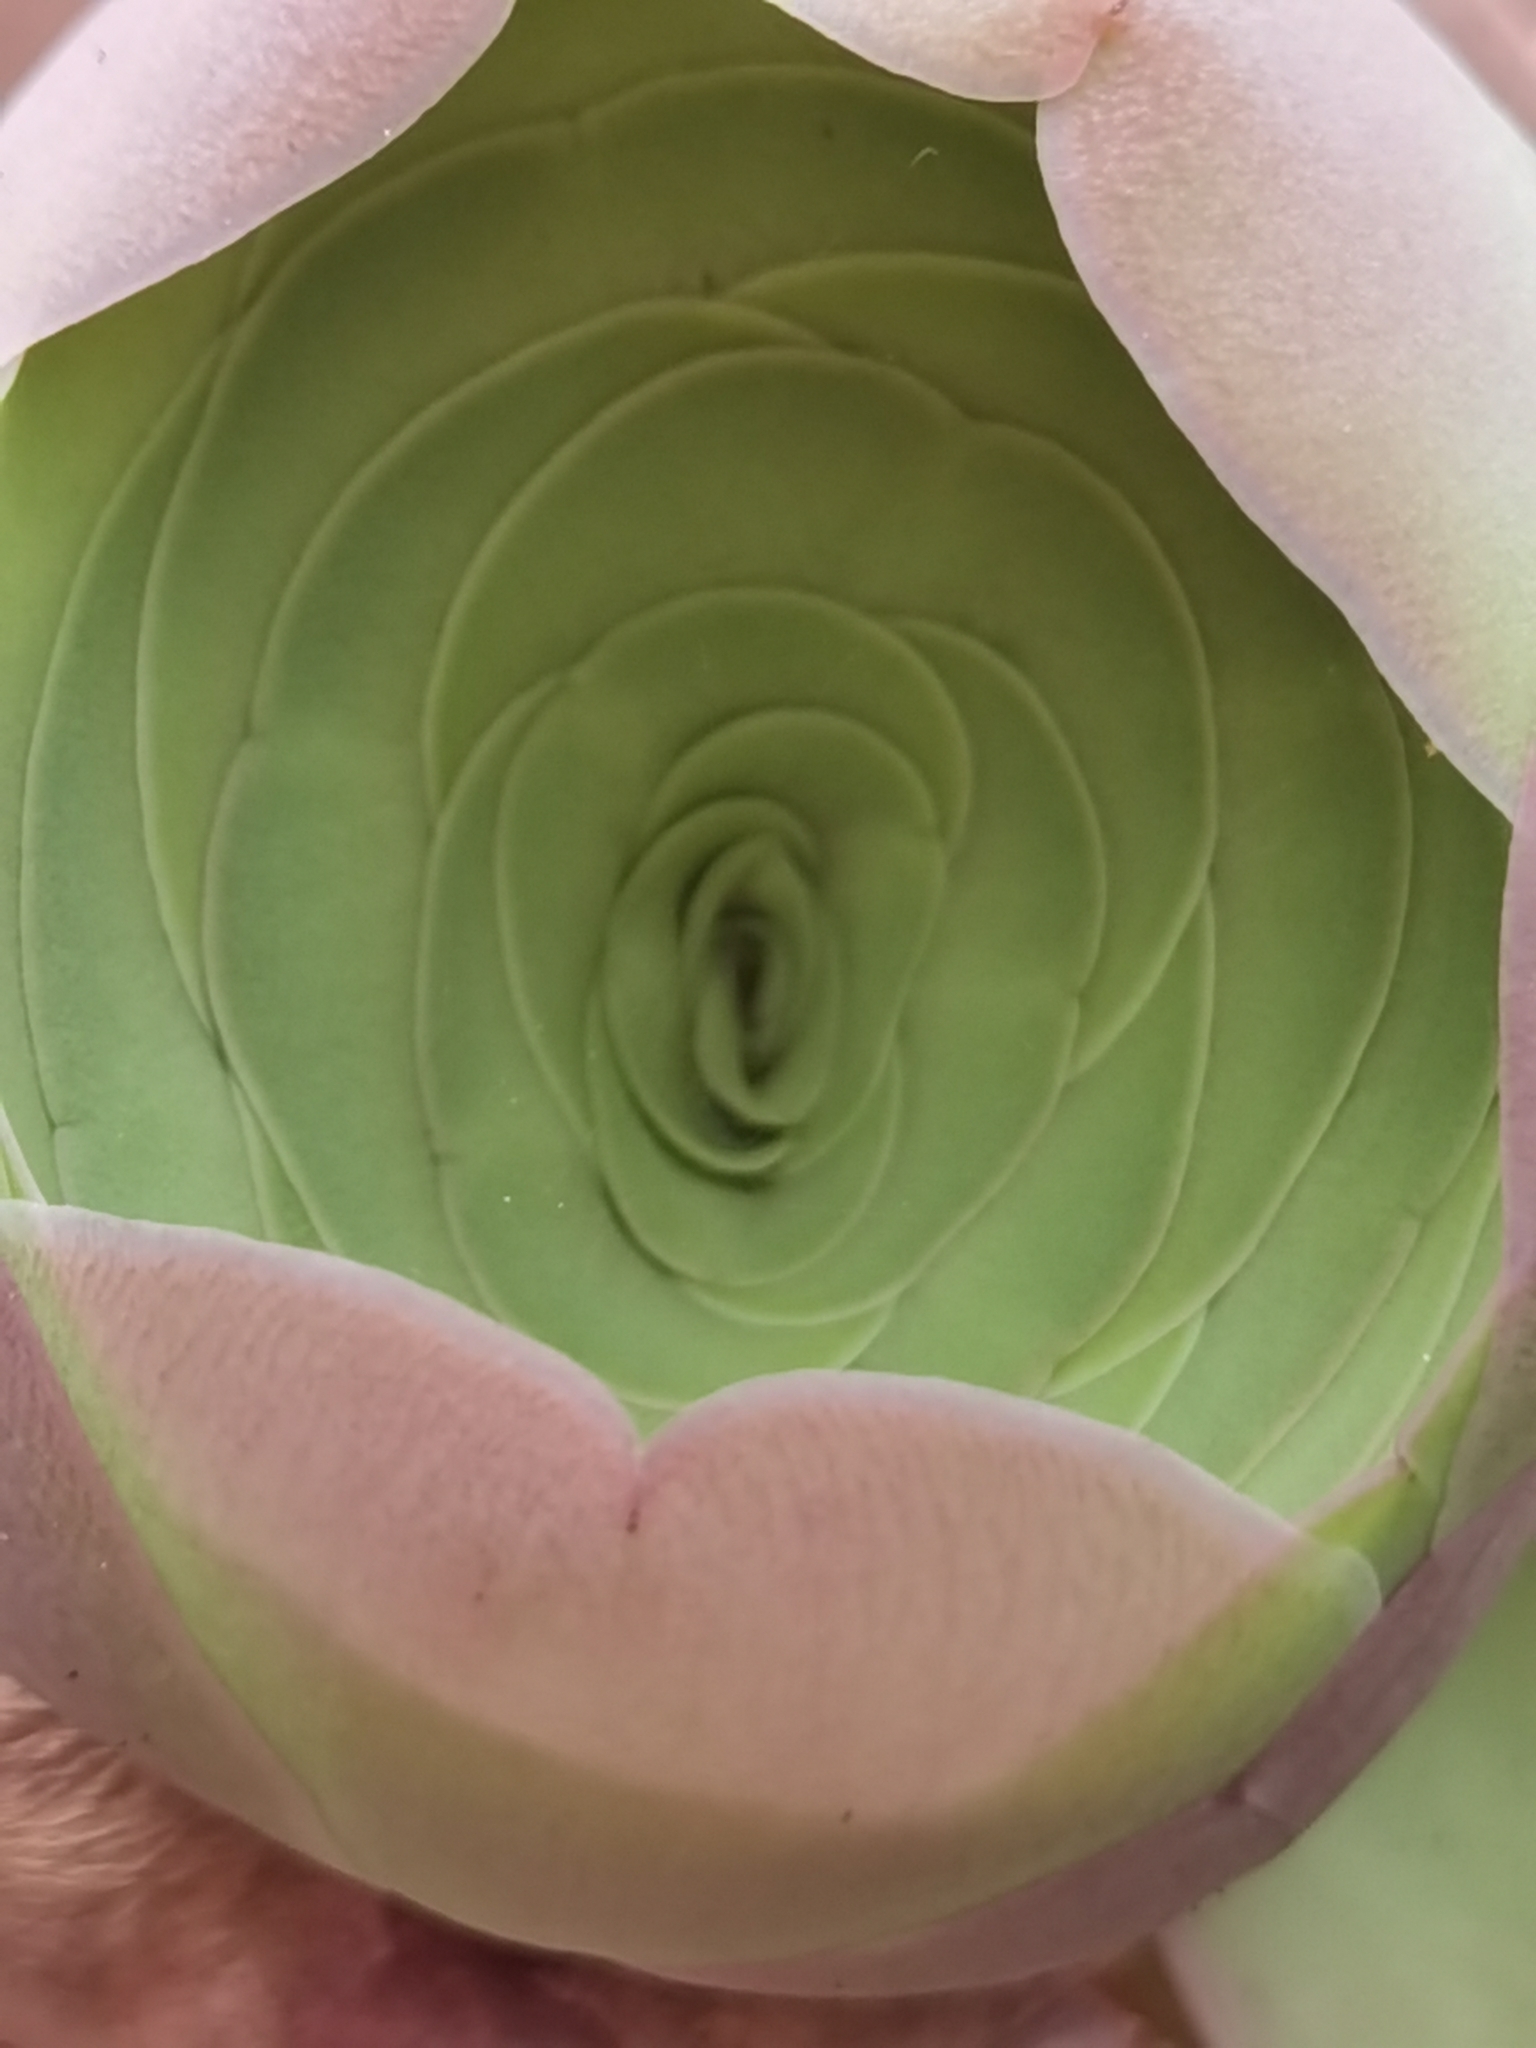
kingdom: Plantae
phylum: Tracheophyta
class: Magnoliopsida
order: Saxifragales
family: Crassulaceae
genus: Aeonium
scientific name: Aeonium diplocyclum
